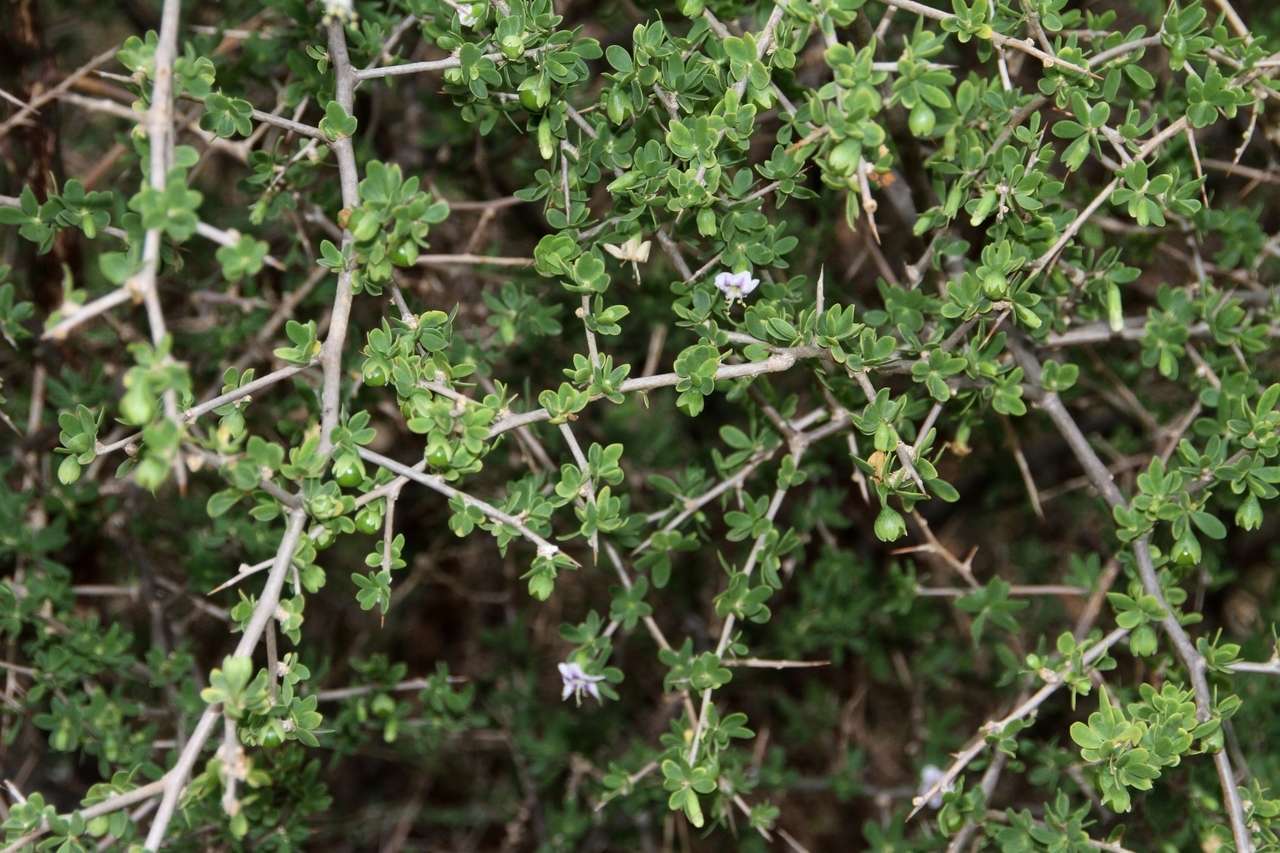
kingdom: Plantae
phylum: Tracheophyta
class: Magnoliopsida
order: Solanales
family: Solanaceae
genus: Lycium
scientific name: Lycium ferocissimum
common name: African boxthorn
